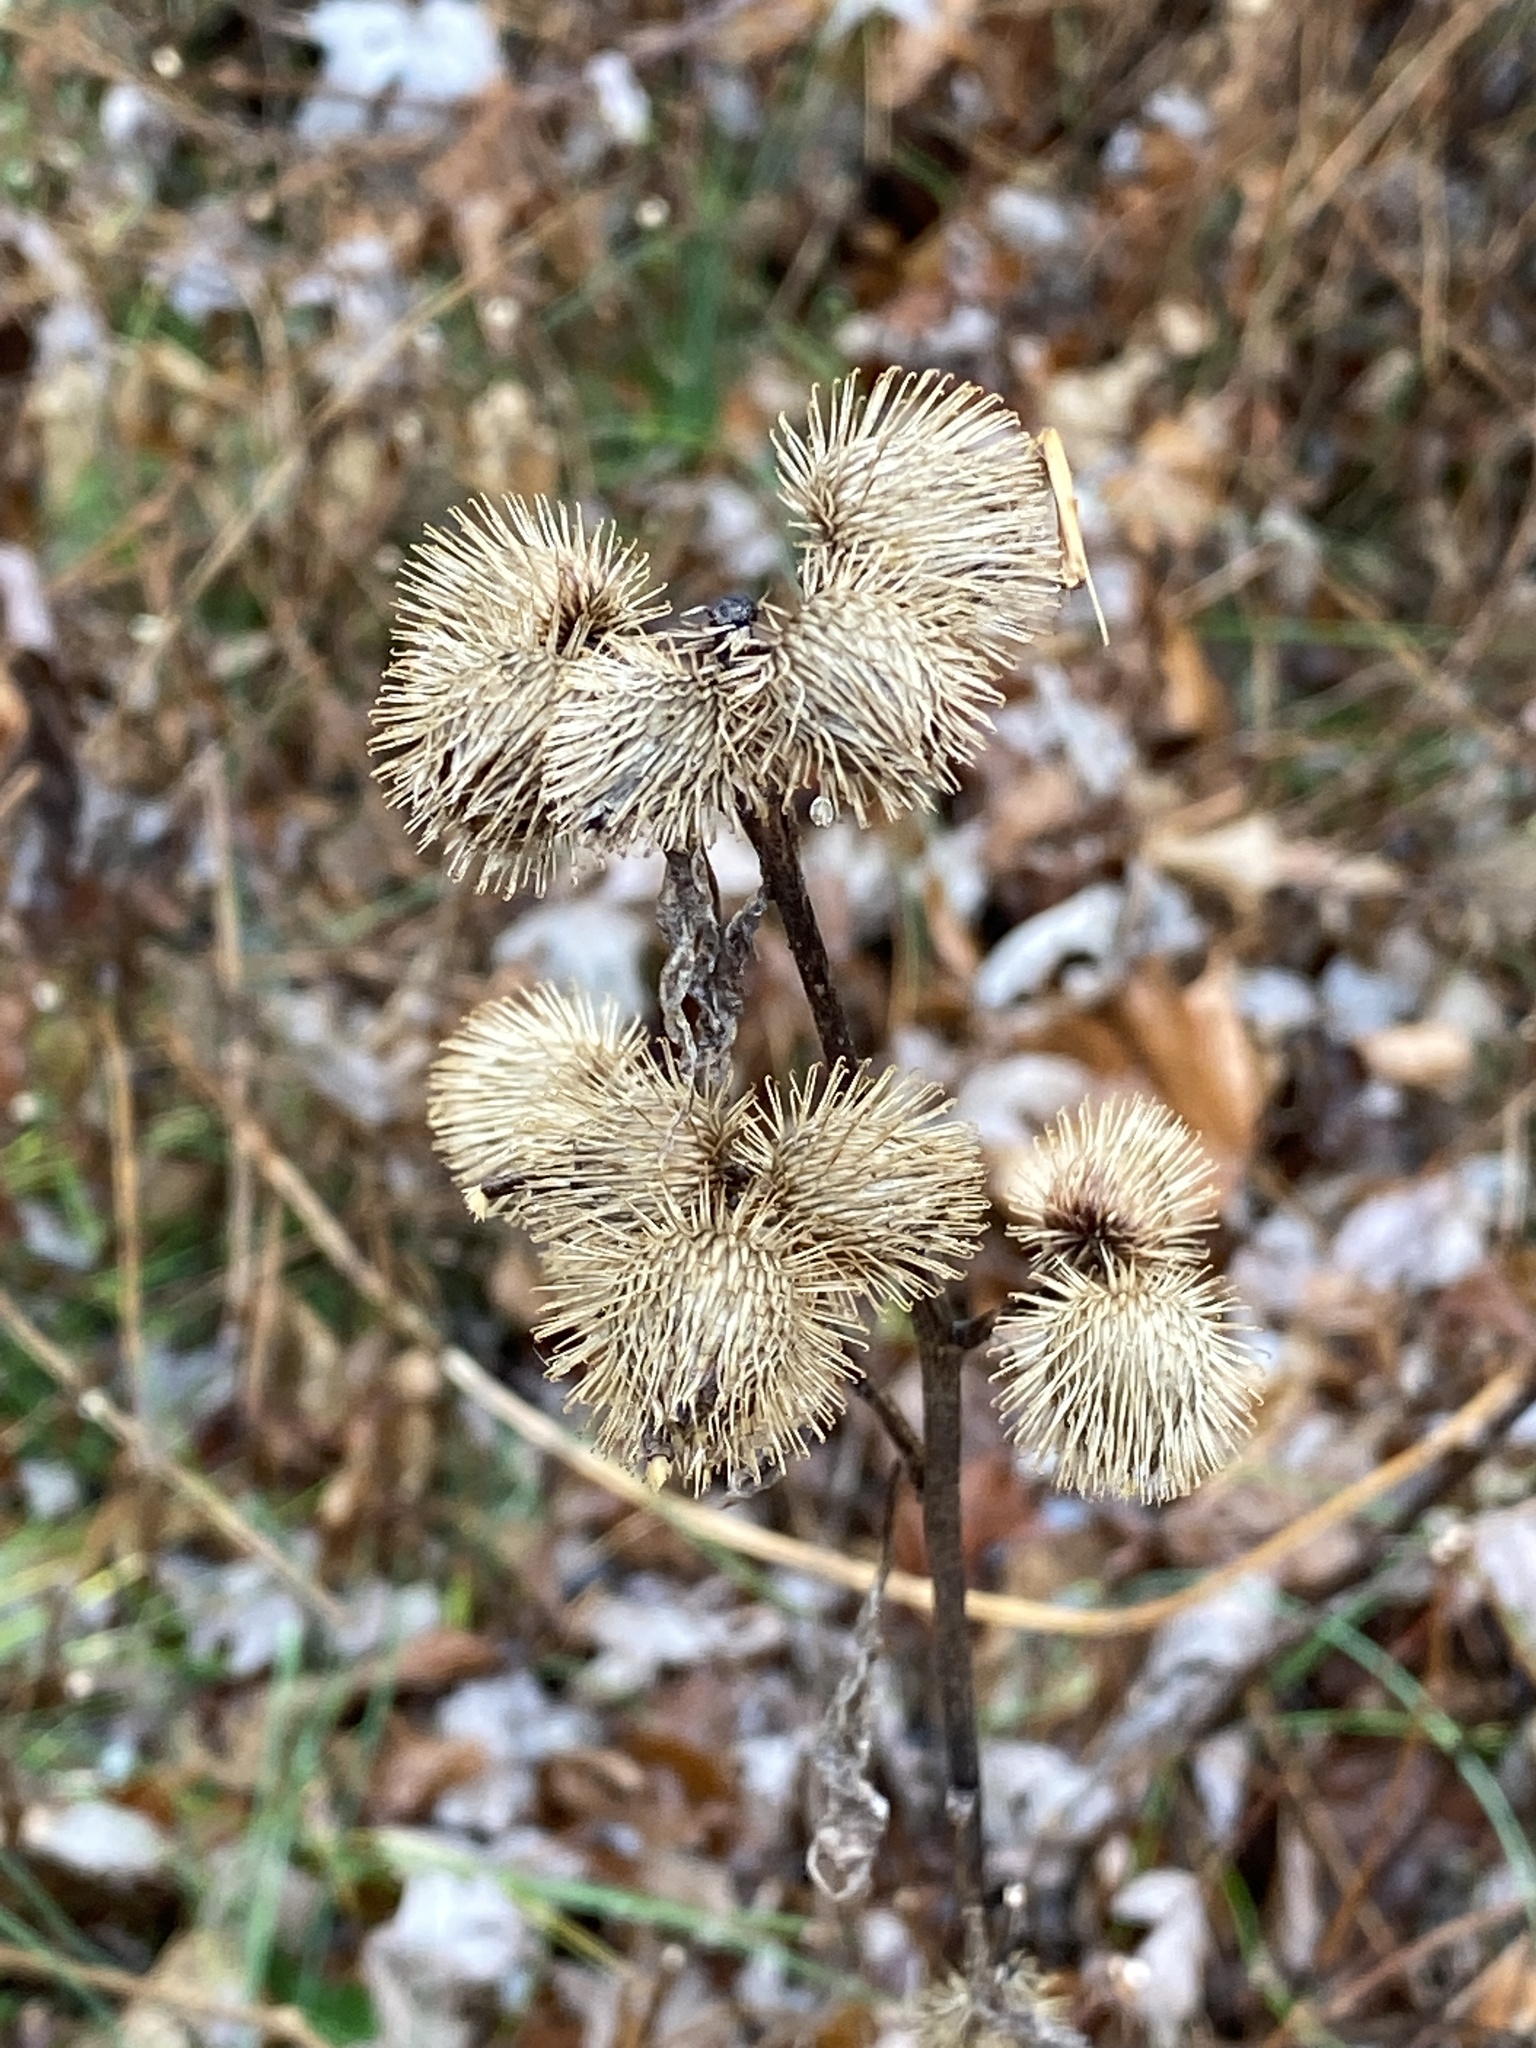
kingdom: Plantae
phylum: Tracheophyta
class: Magnoliopsida
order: Asterales
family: Asteraceae
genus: Arctium
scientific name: Arctium minus
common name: Lesser burdock
